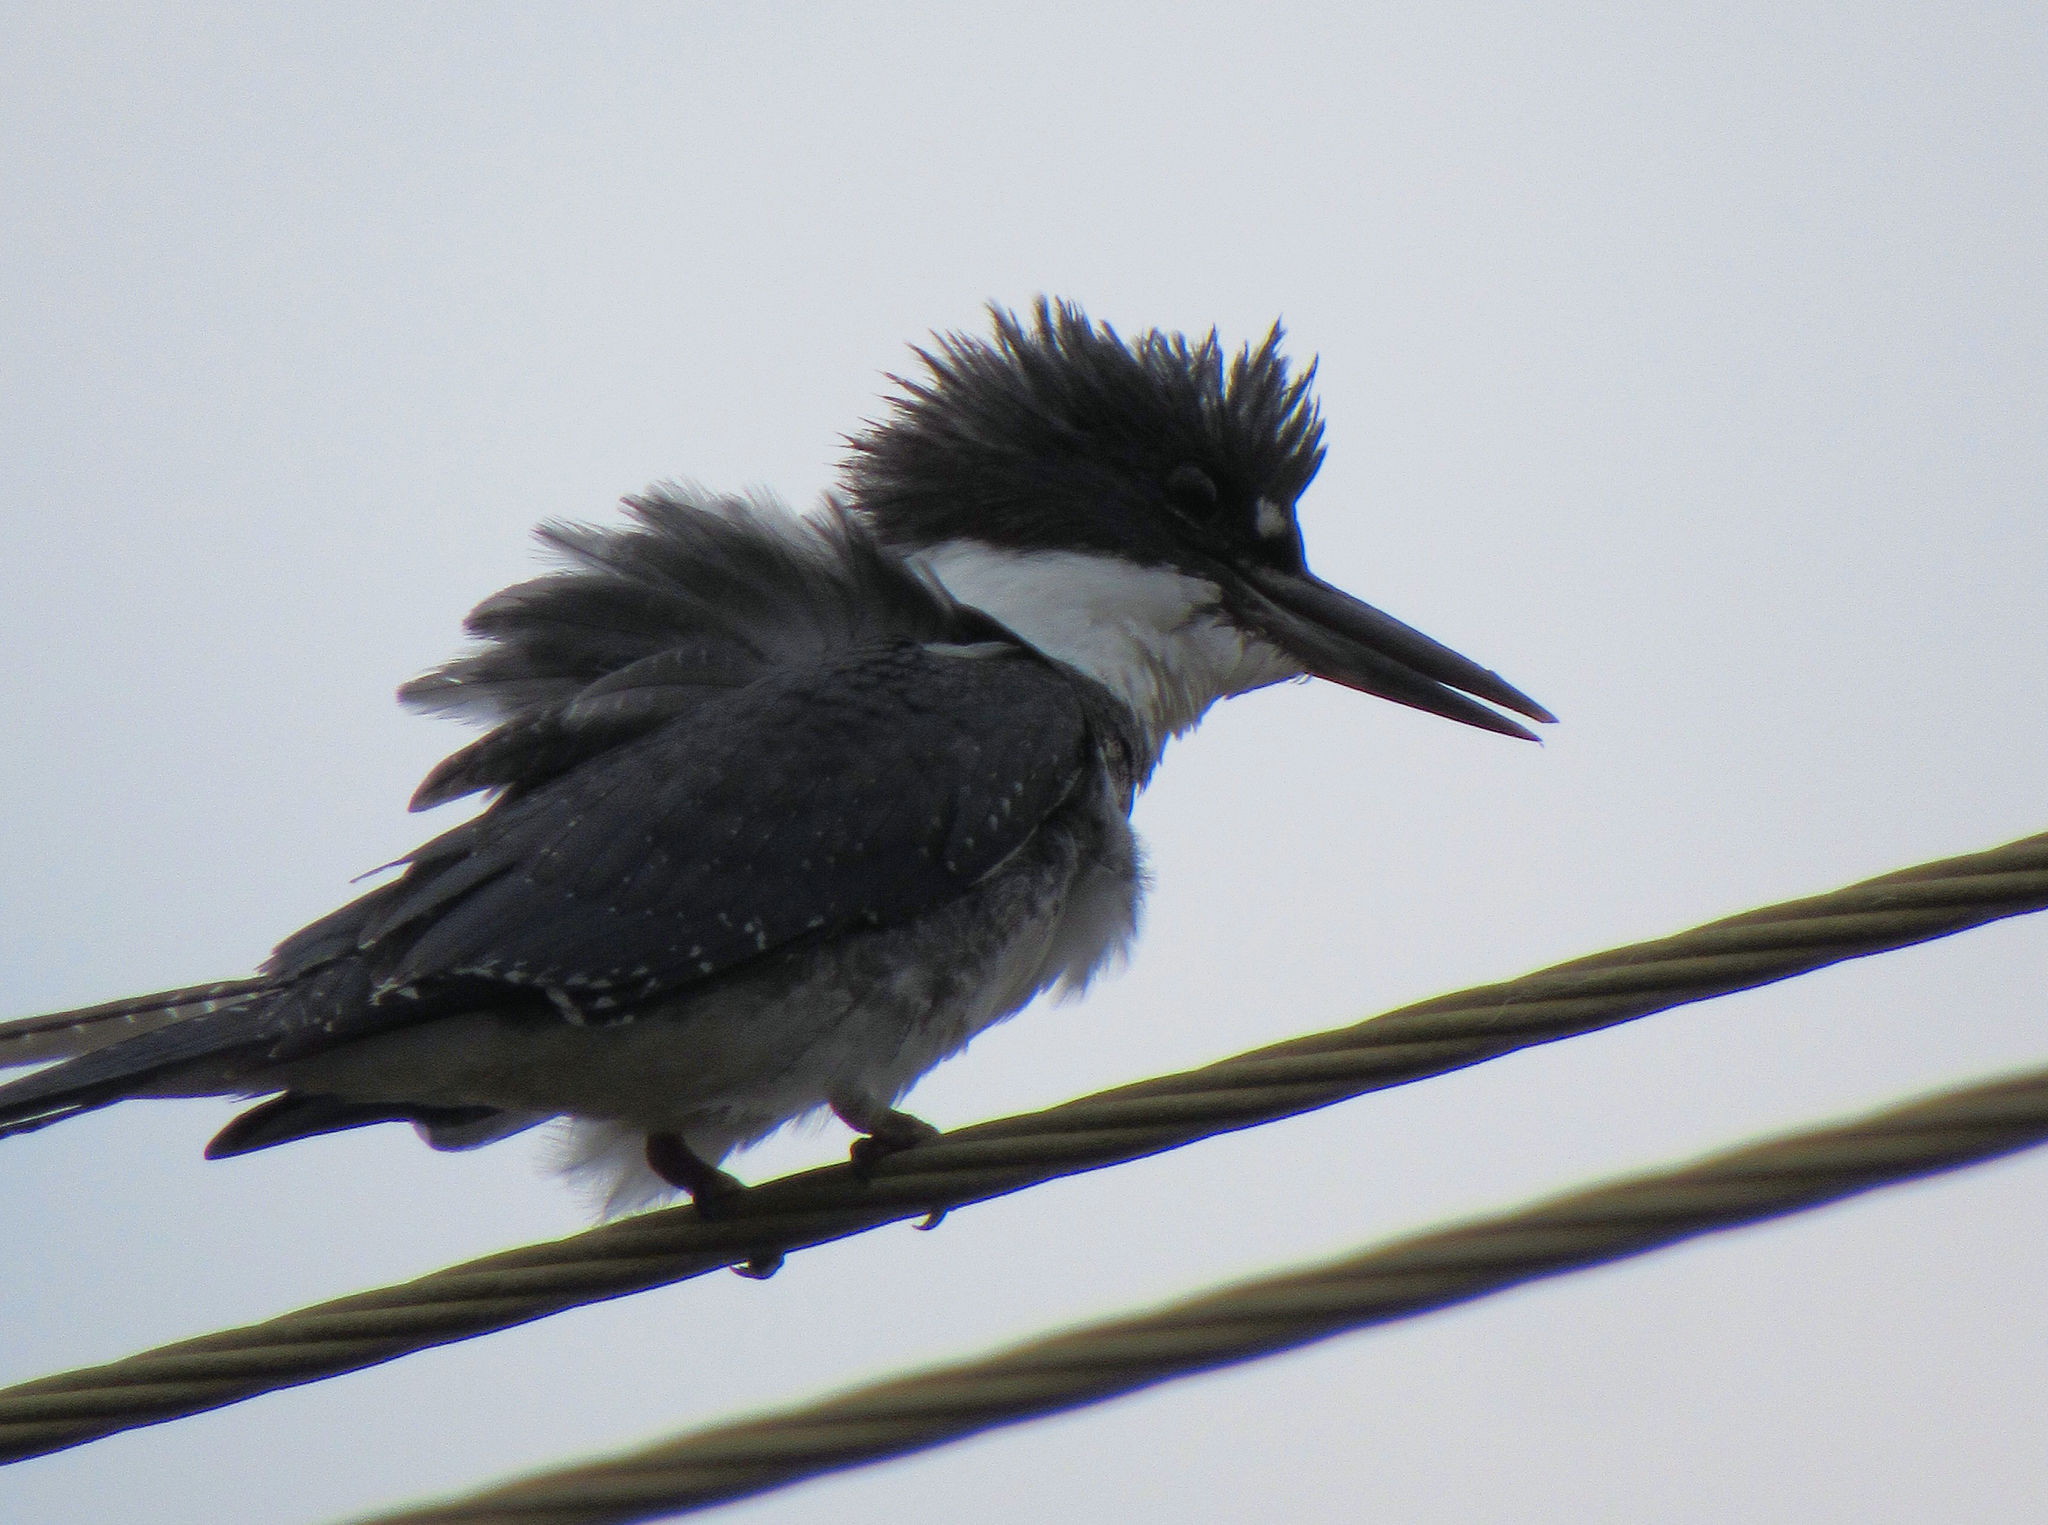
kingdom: Animalia
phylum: Chordata
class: Aves
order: Coraciiformes
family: Alcedinidae
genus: Megaceryle
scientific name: Megaceryle alcyon
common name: Belted kingfisher
